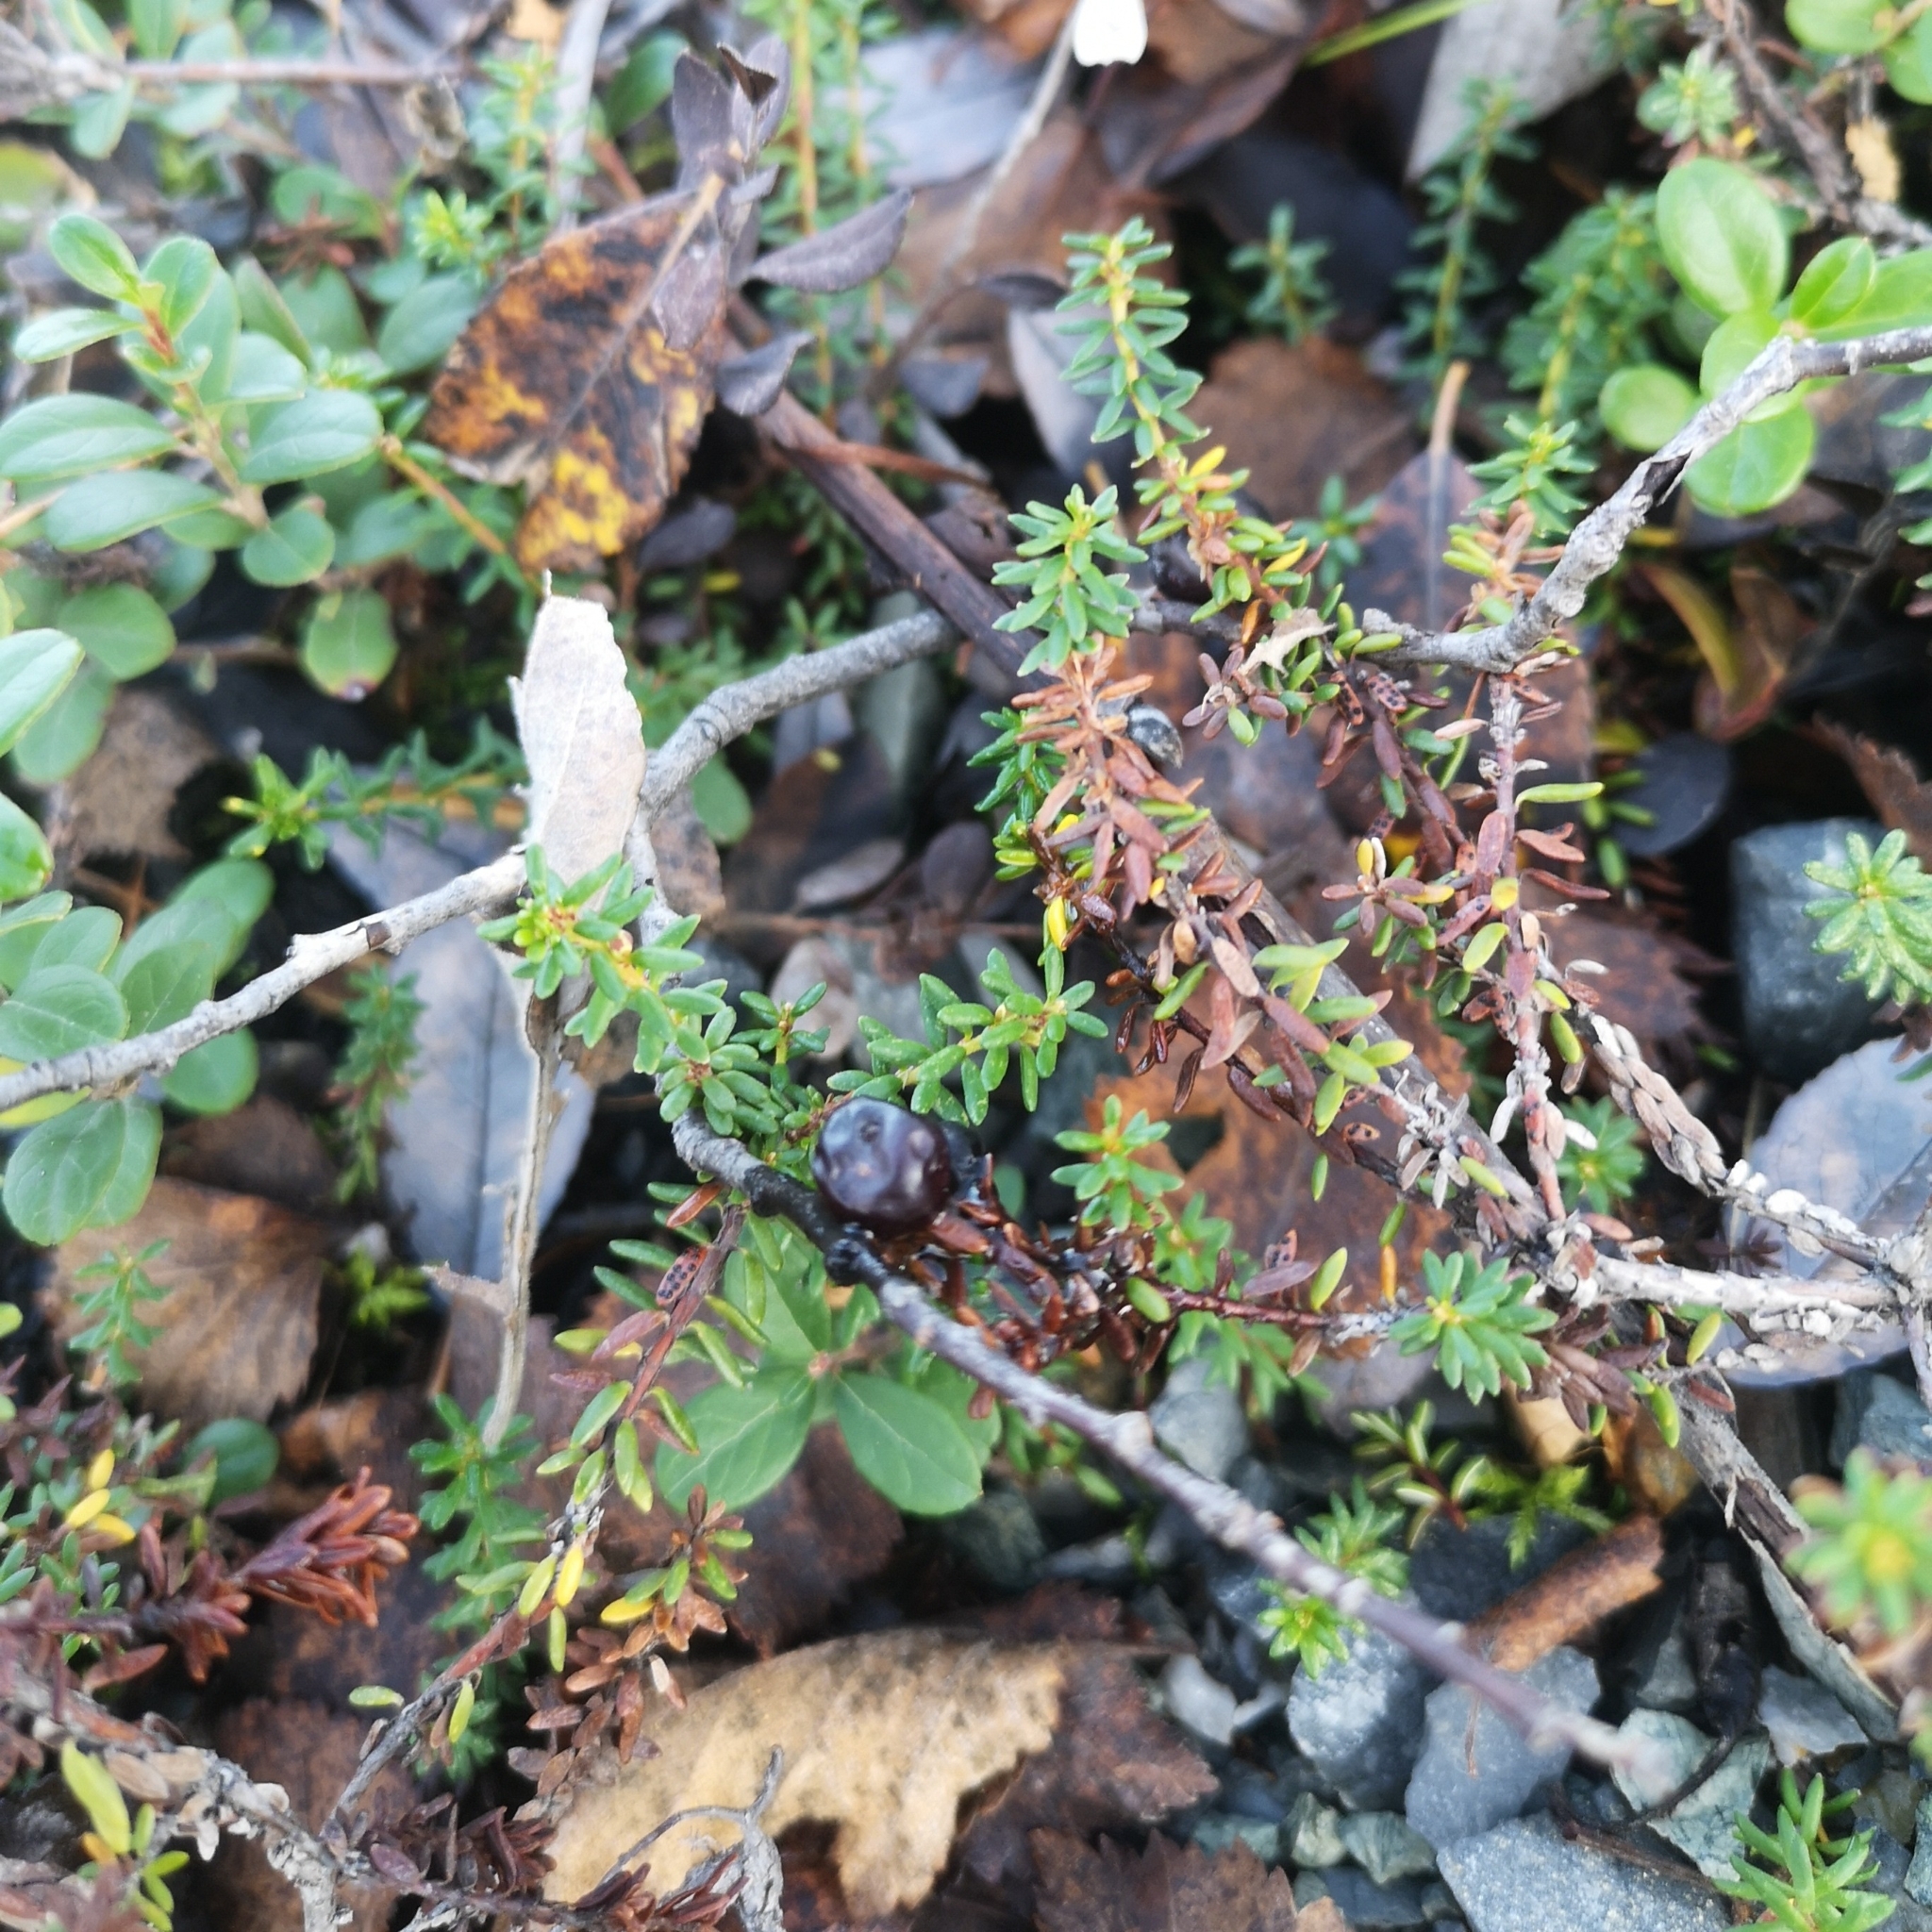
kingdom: Plantae
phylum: Tracheophyta
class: Magnoliopsida
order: Ericales
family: Ericaceae
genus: Empetrum
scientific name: Empetrum nigrum
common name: Black crowberry
